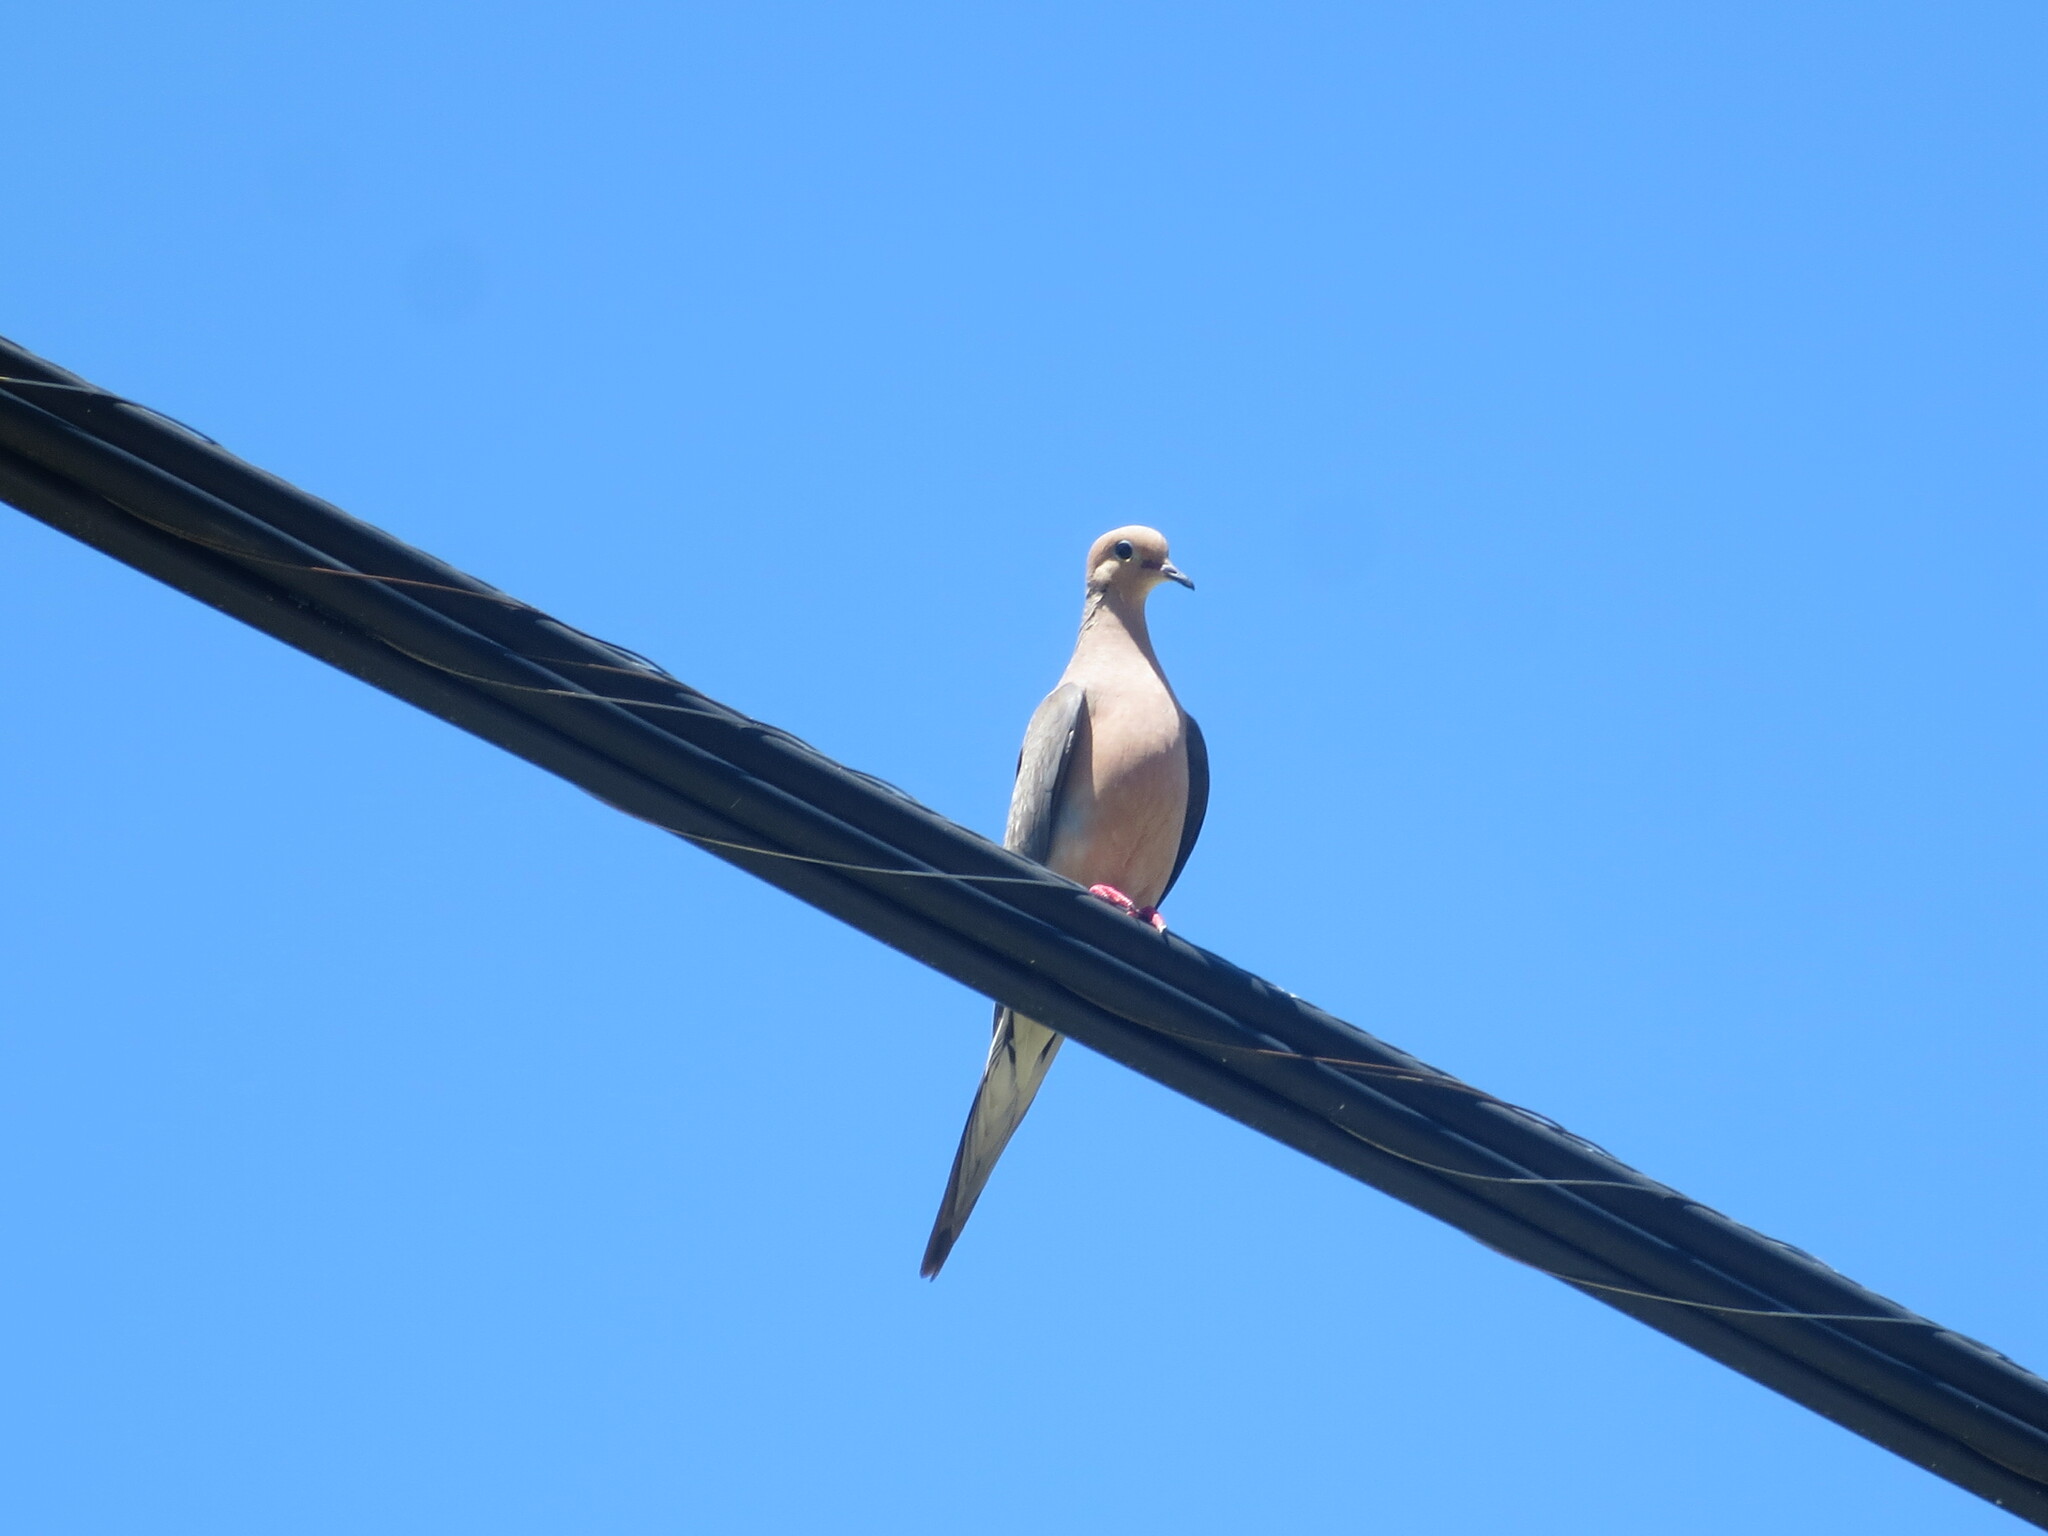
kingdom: Animalia
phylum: Chordata
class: Aves
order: Columbiformes
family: Columbidae
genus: Zenaida
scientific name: Zenaida macroura
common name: Mourning dove
